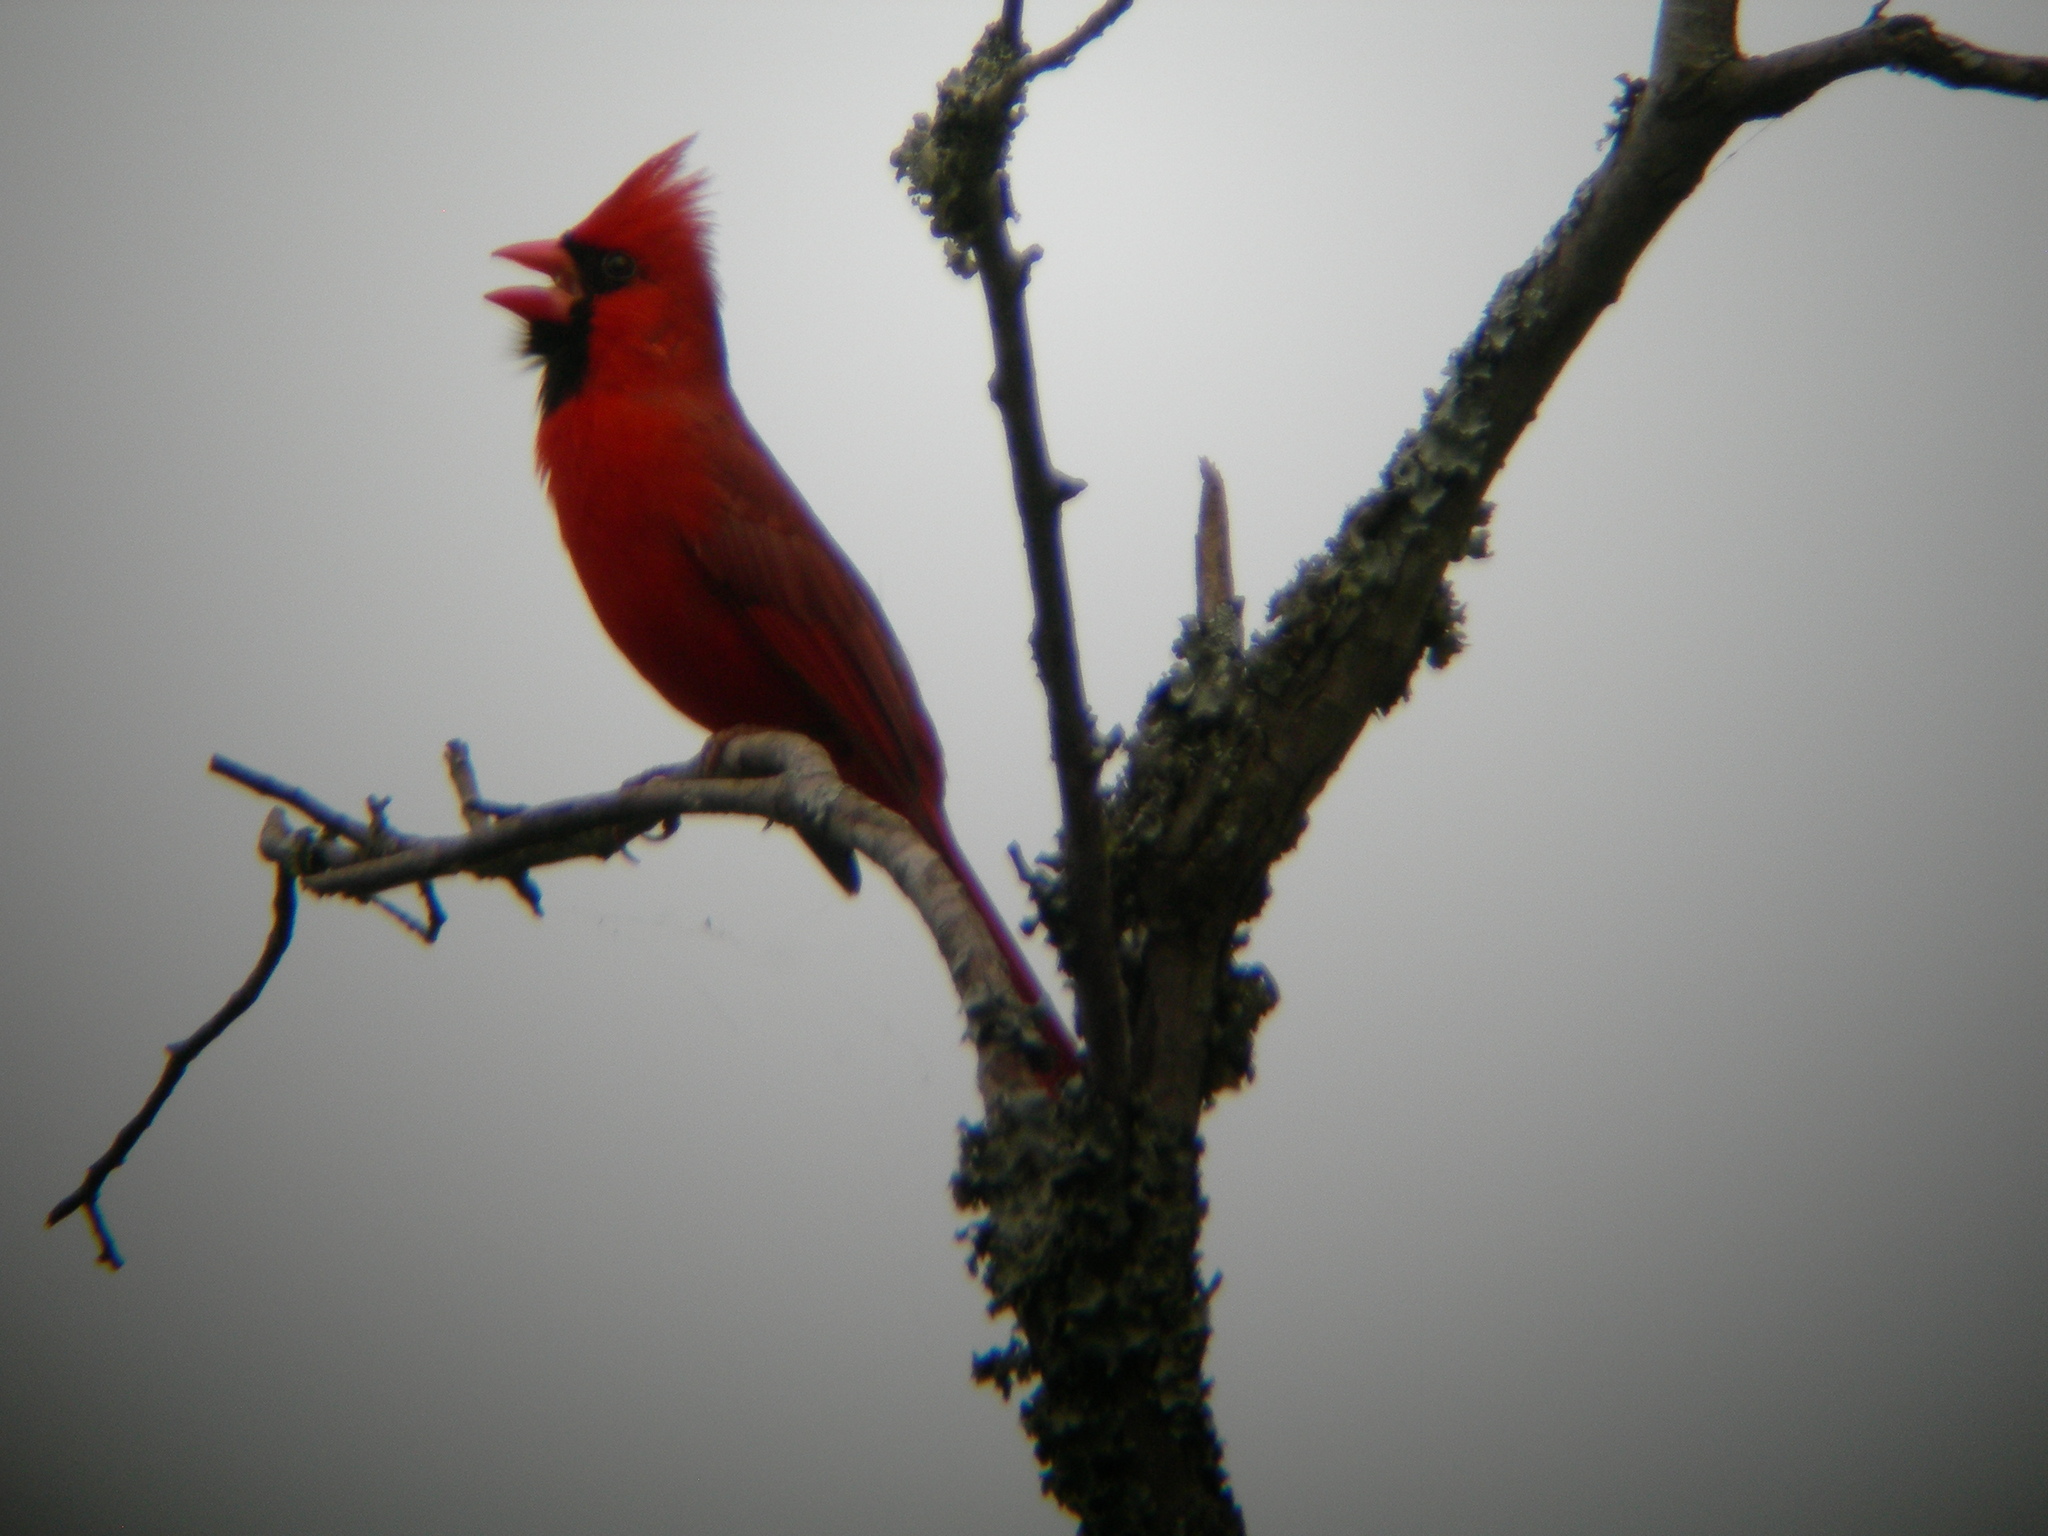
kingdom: Animalia
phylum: Chordata
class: Aves
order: Passeriformes
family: Cardinalidae
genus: Cardinalis
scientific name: Cardinalis cardinalis
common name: Northern cardinal
